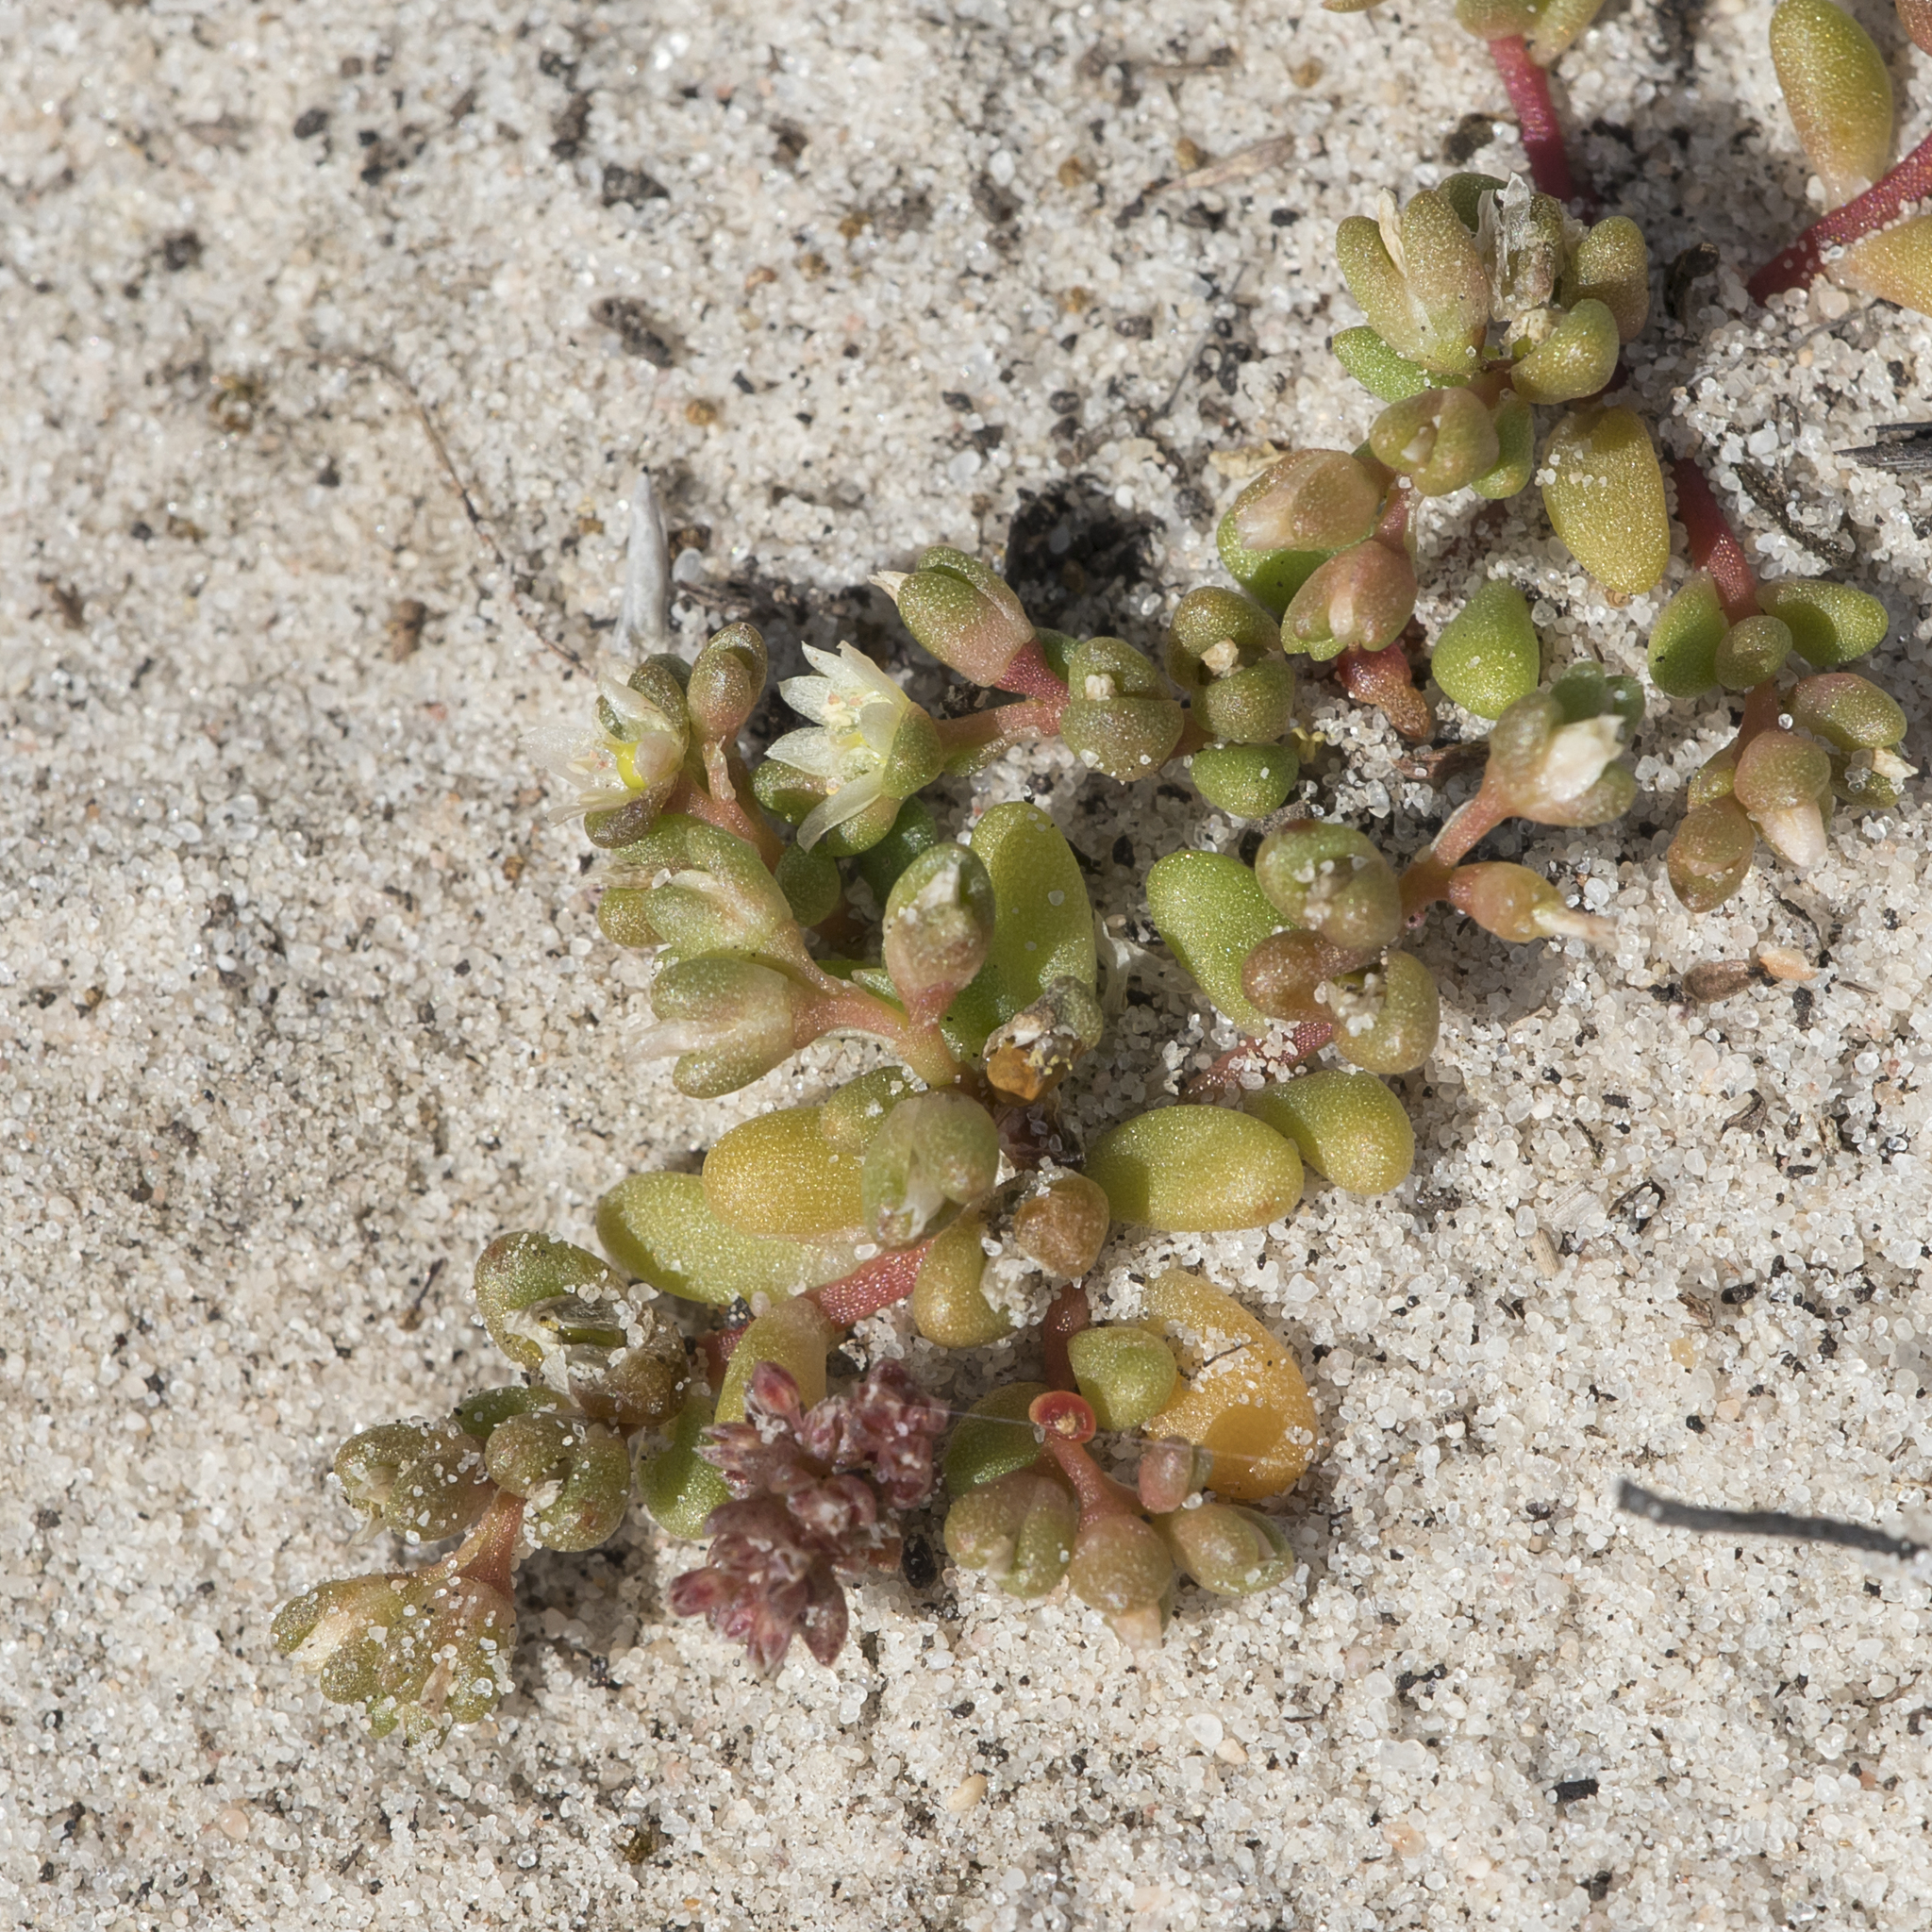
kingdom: Plantae
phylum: Tracheophyta
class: Magnoliopsida
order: Caryophyllales
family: Montiaceae
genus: Rumicastrum
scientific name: Rumicastrum granuliferum
